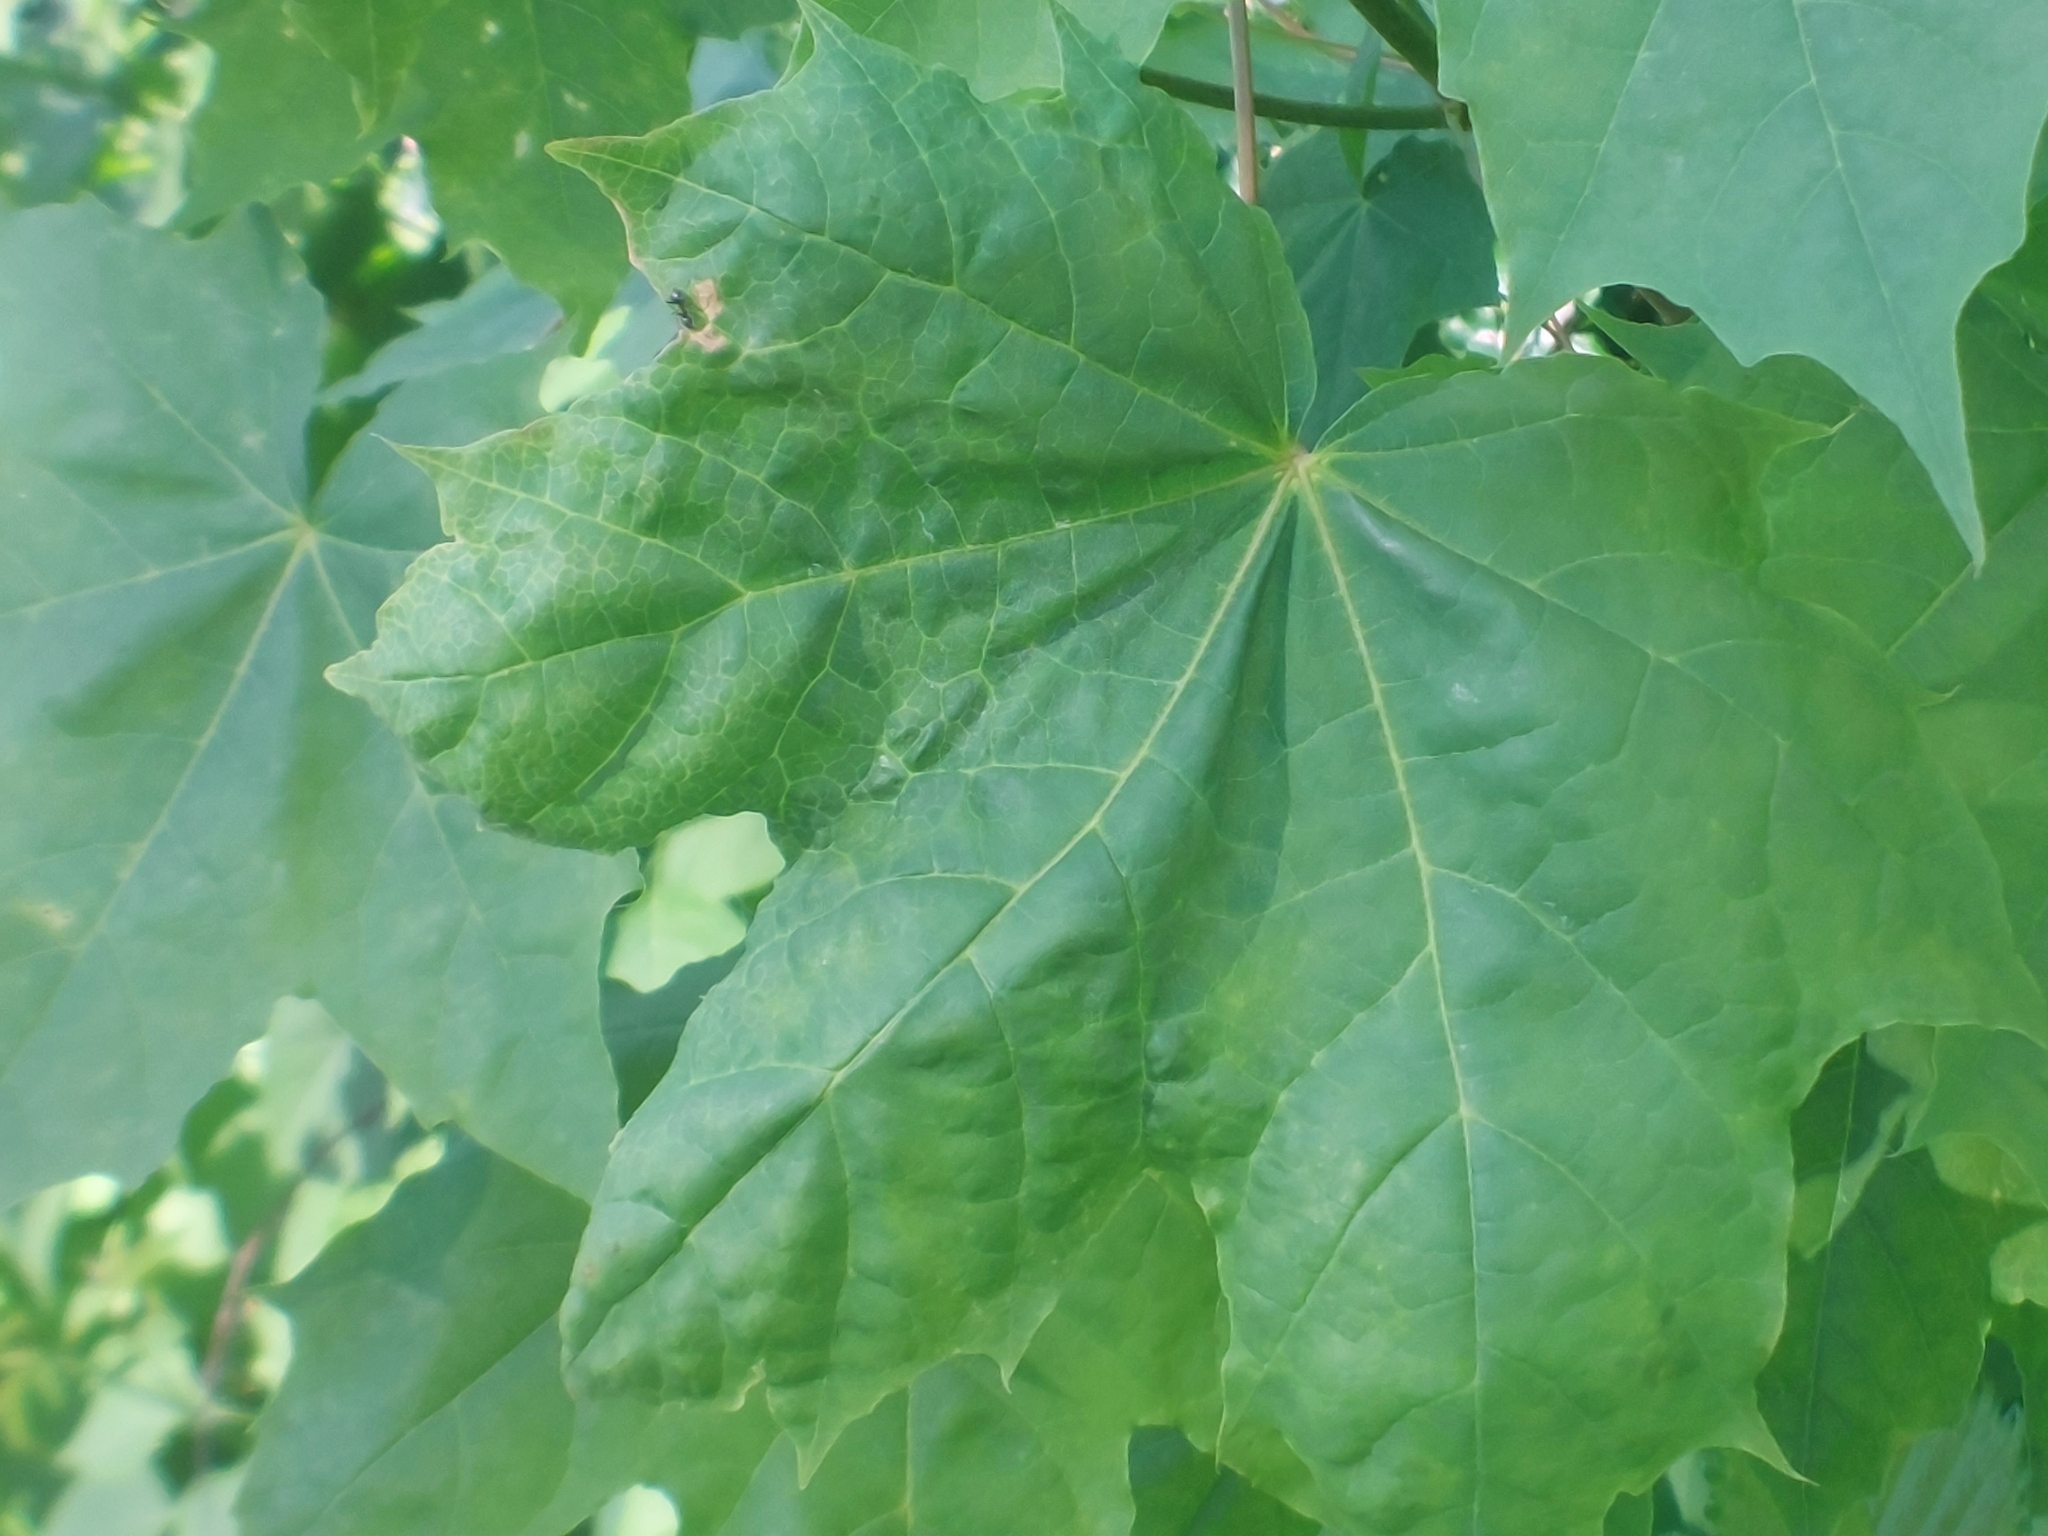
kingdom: Plantae
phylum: Tracheophyta
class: Magnoliopsida
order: Sapindales
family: Sapindaceae
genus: Acer
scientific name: Acer platanoides
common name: Norway maple
